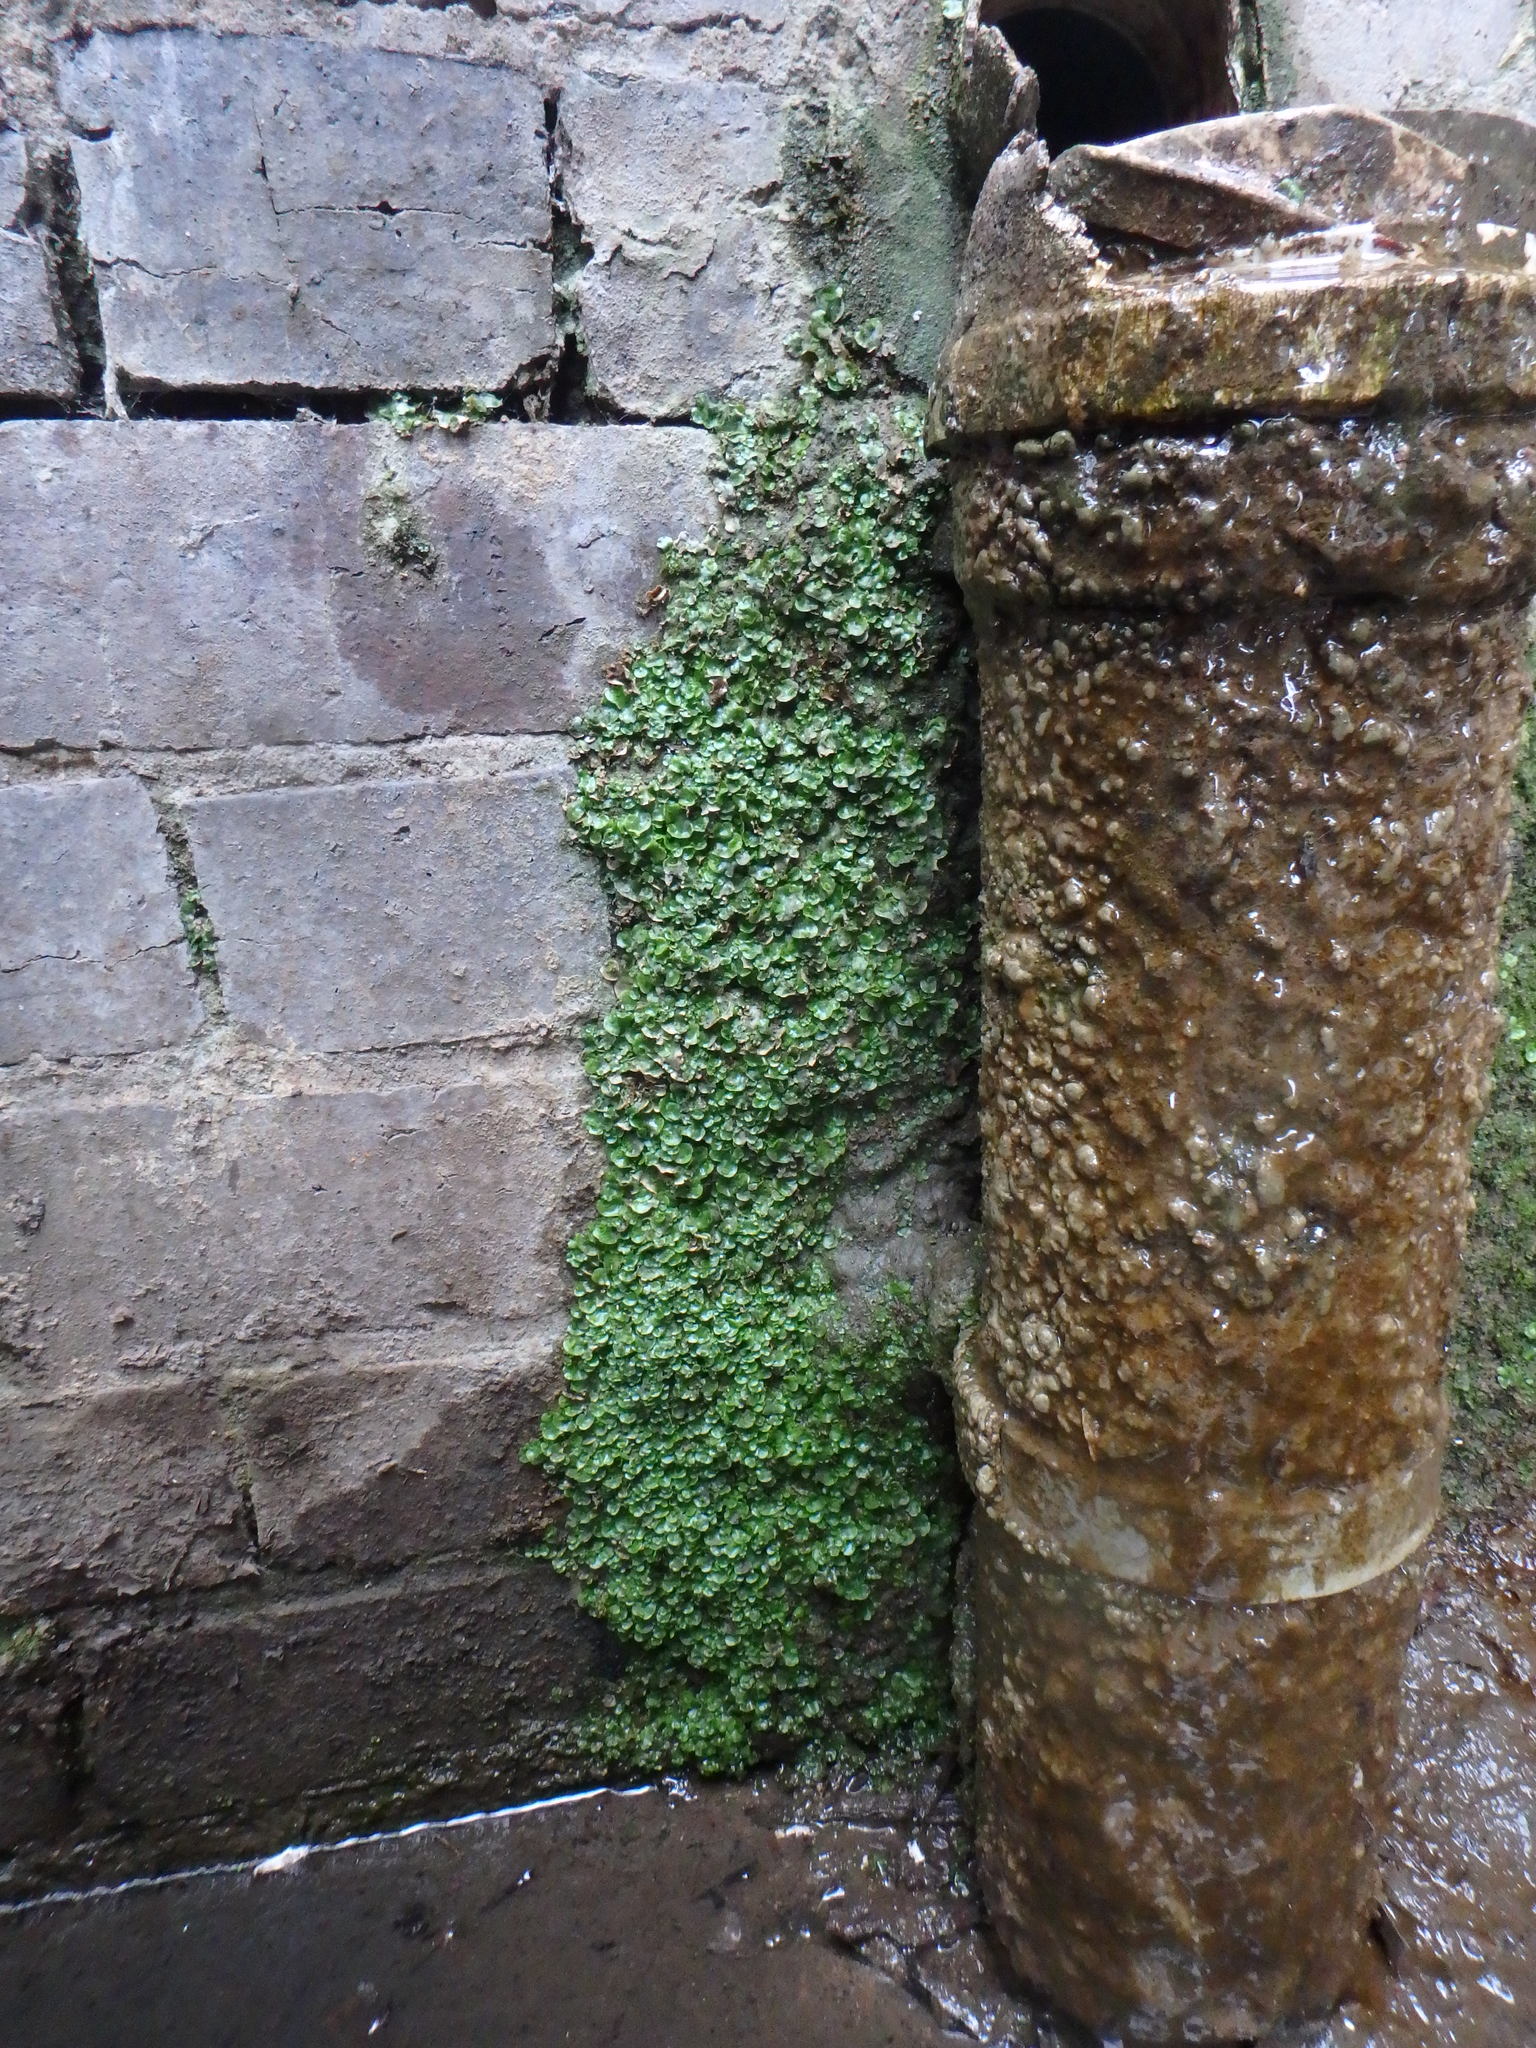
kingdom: Plantae
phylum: Marchantiophyta
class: Marchantiopsida
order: Lunulariales
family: Lunulariaceae
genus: Lunularia
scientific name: Lunularia cruciata
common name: Crescent-cup liverwort
